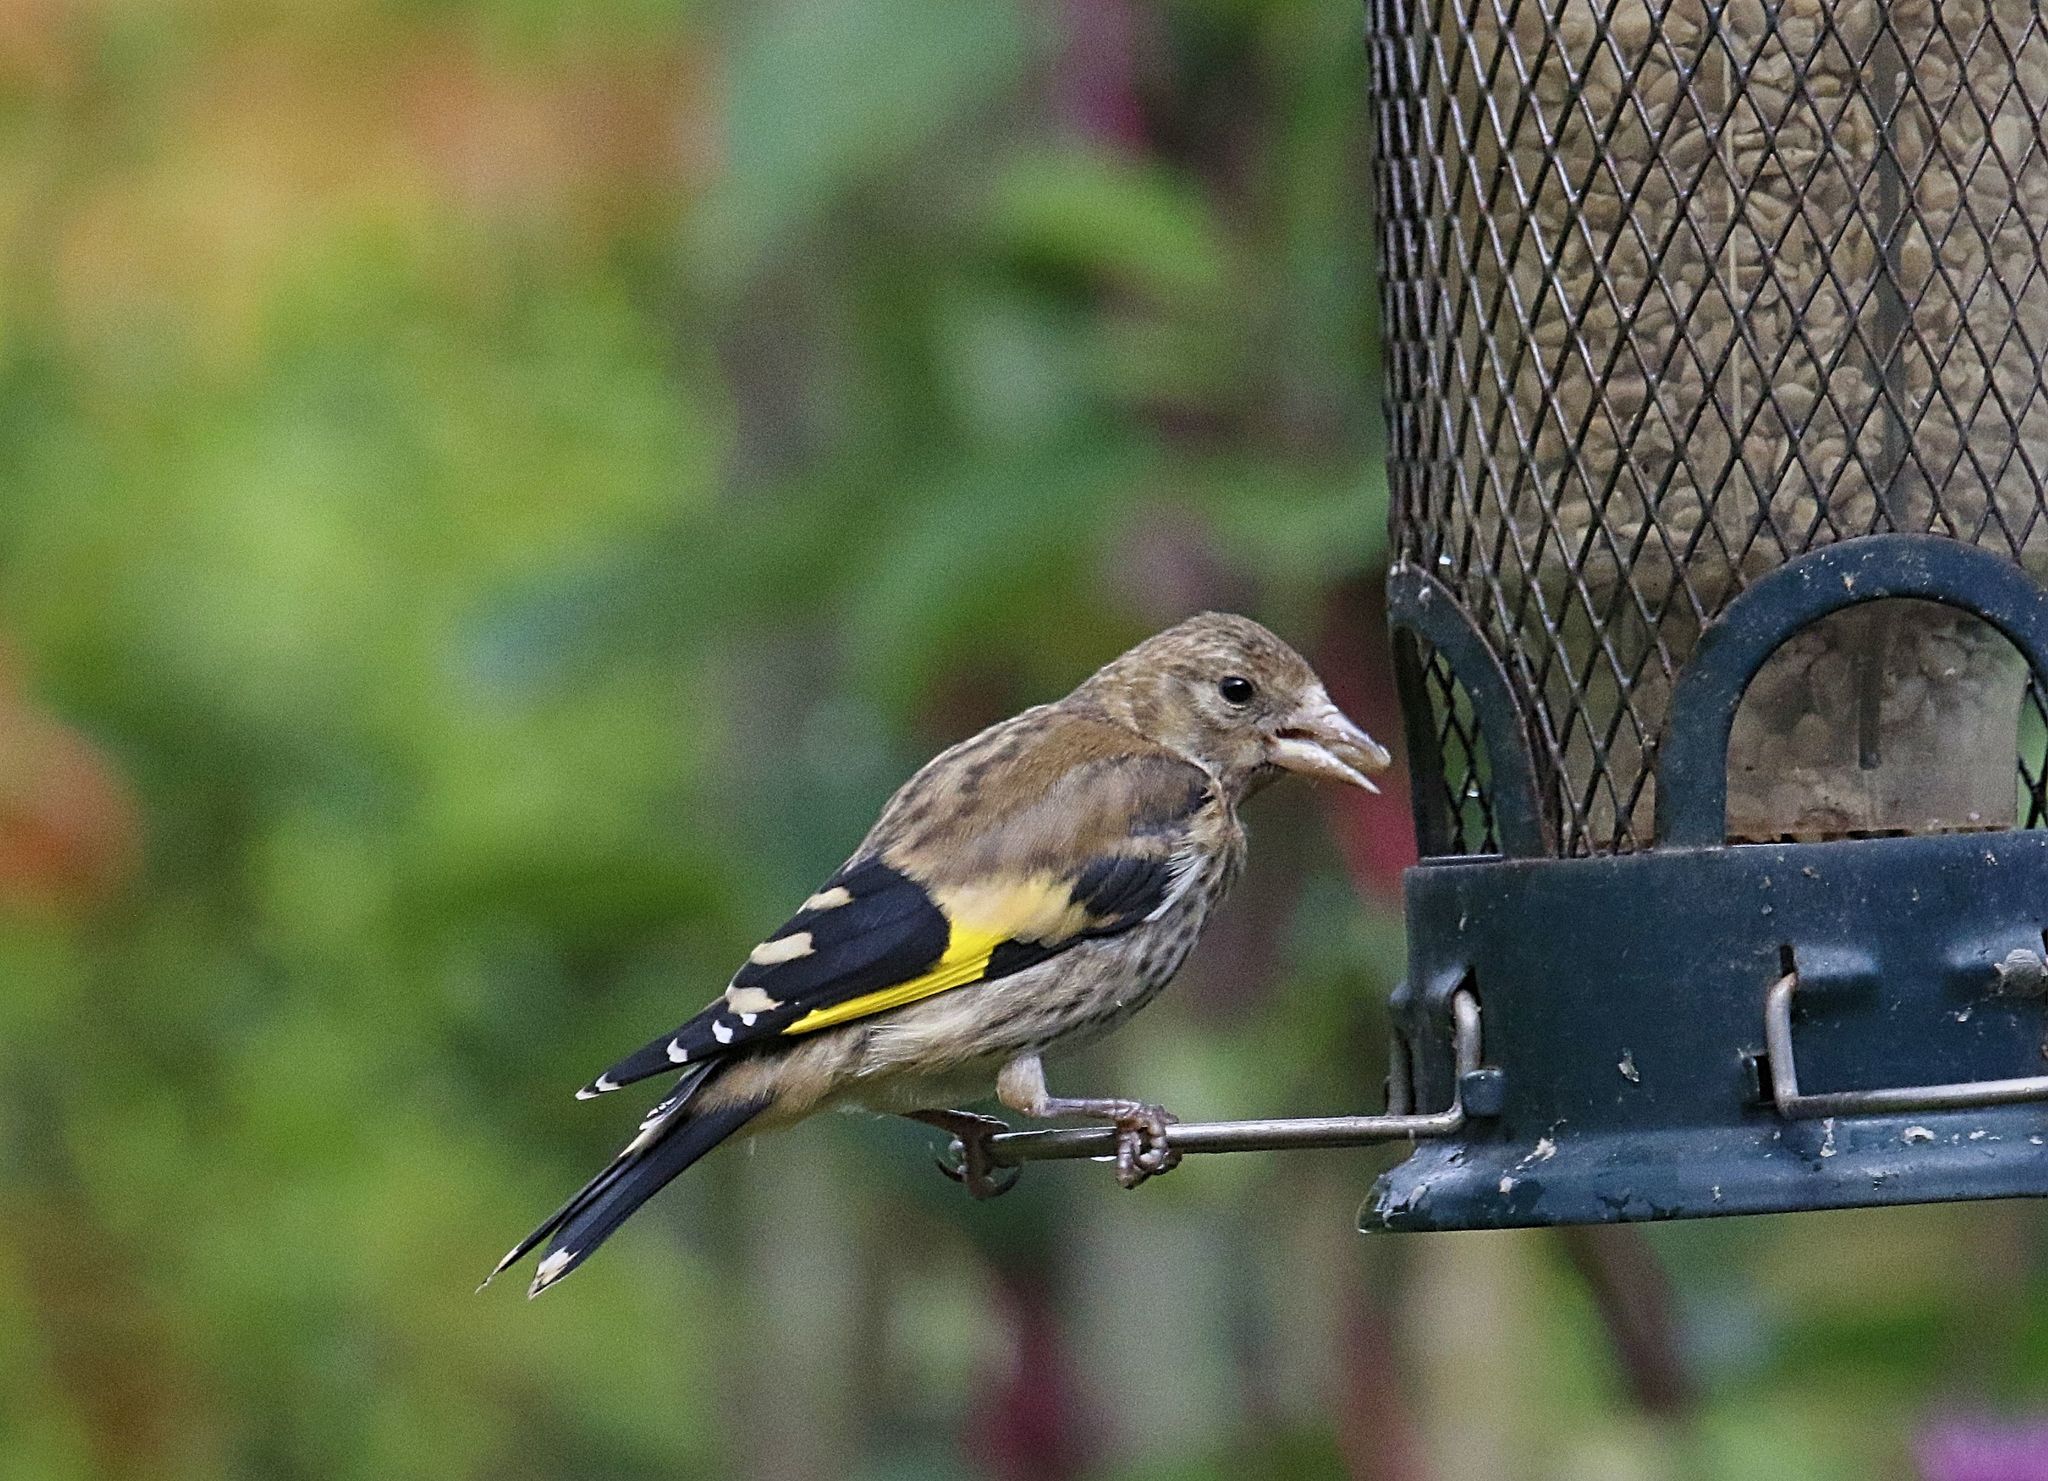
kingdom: Animalia
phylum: Chordata
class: Aves
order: Passeriformes
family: Fringillidae
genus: Carduelis
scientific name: Carduelis carduelis
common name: European goldfinch
